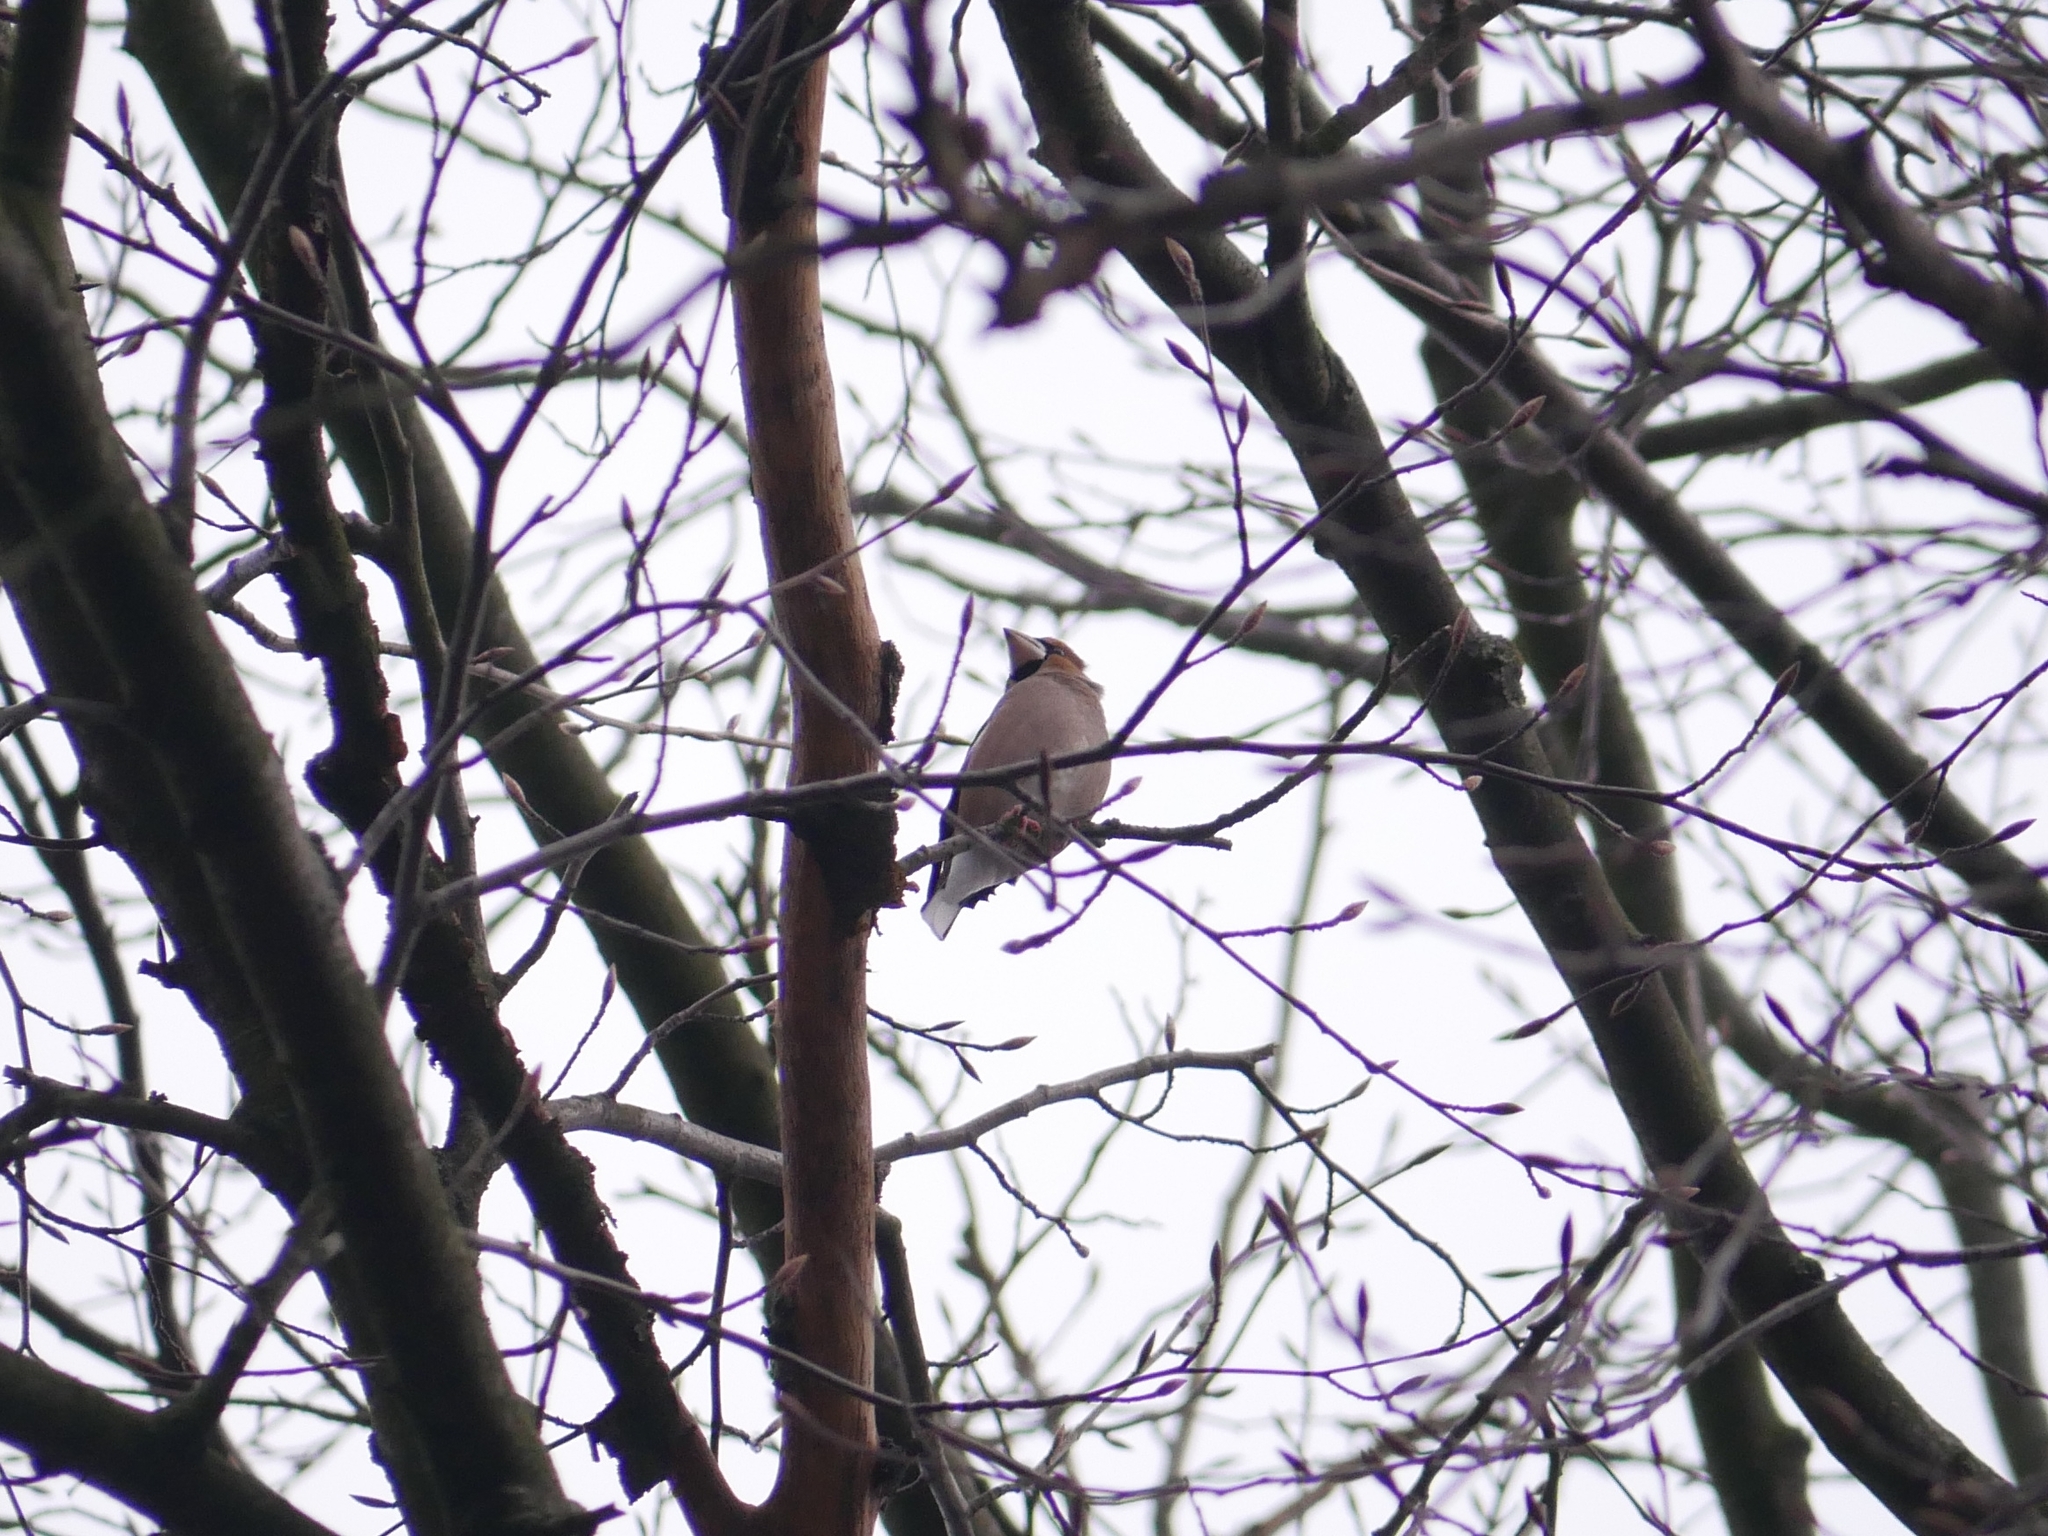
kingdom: Animalia
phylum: Chordata
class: Aves
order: Passeriformes
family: Fringillidae
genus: Coccothraustes
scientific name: Coccothraustes coccothraustes
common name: Hawfinch
